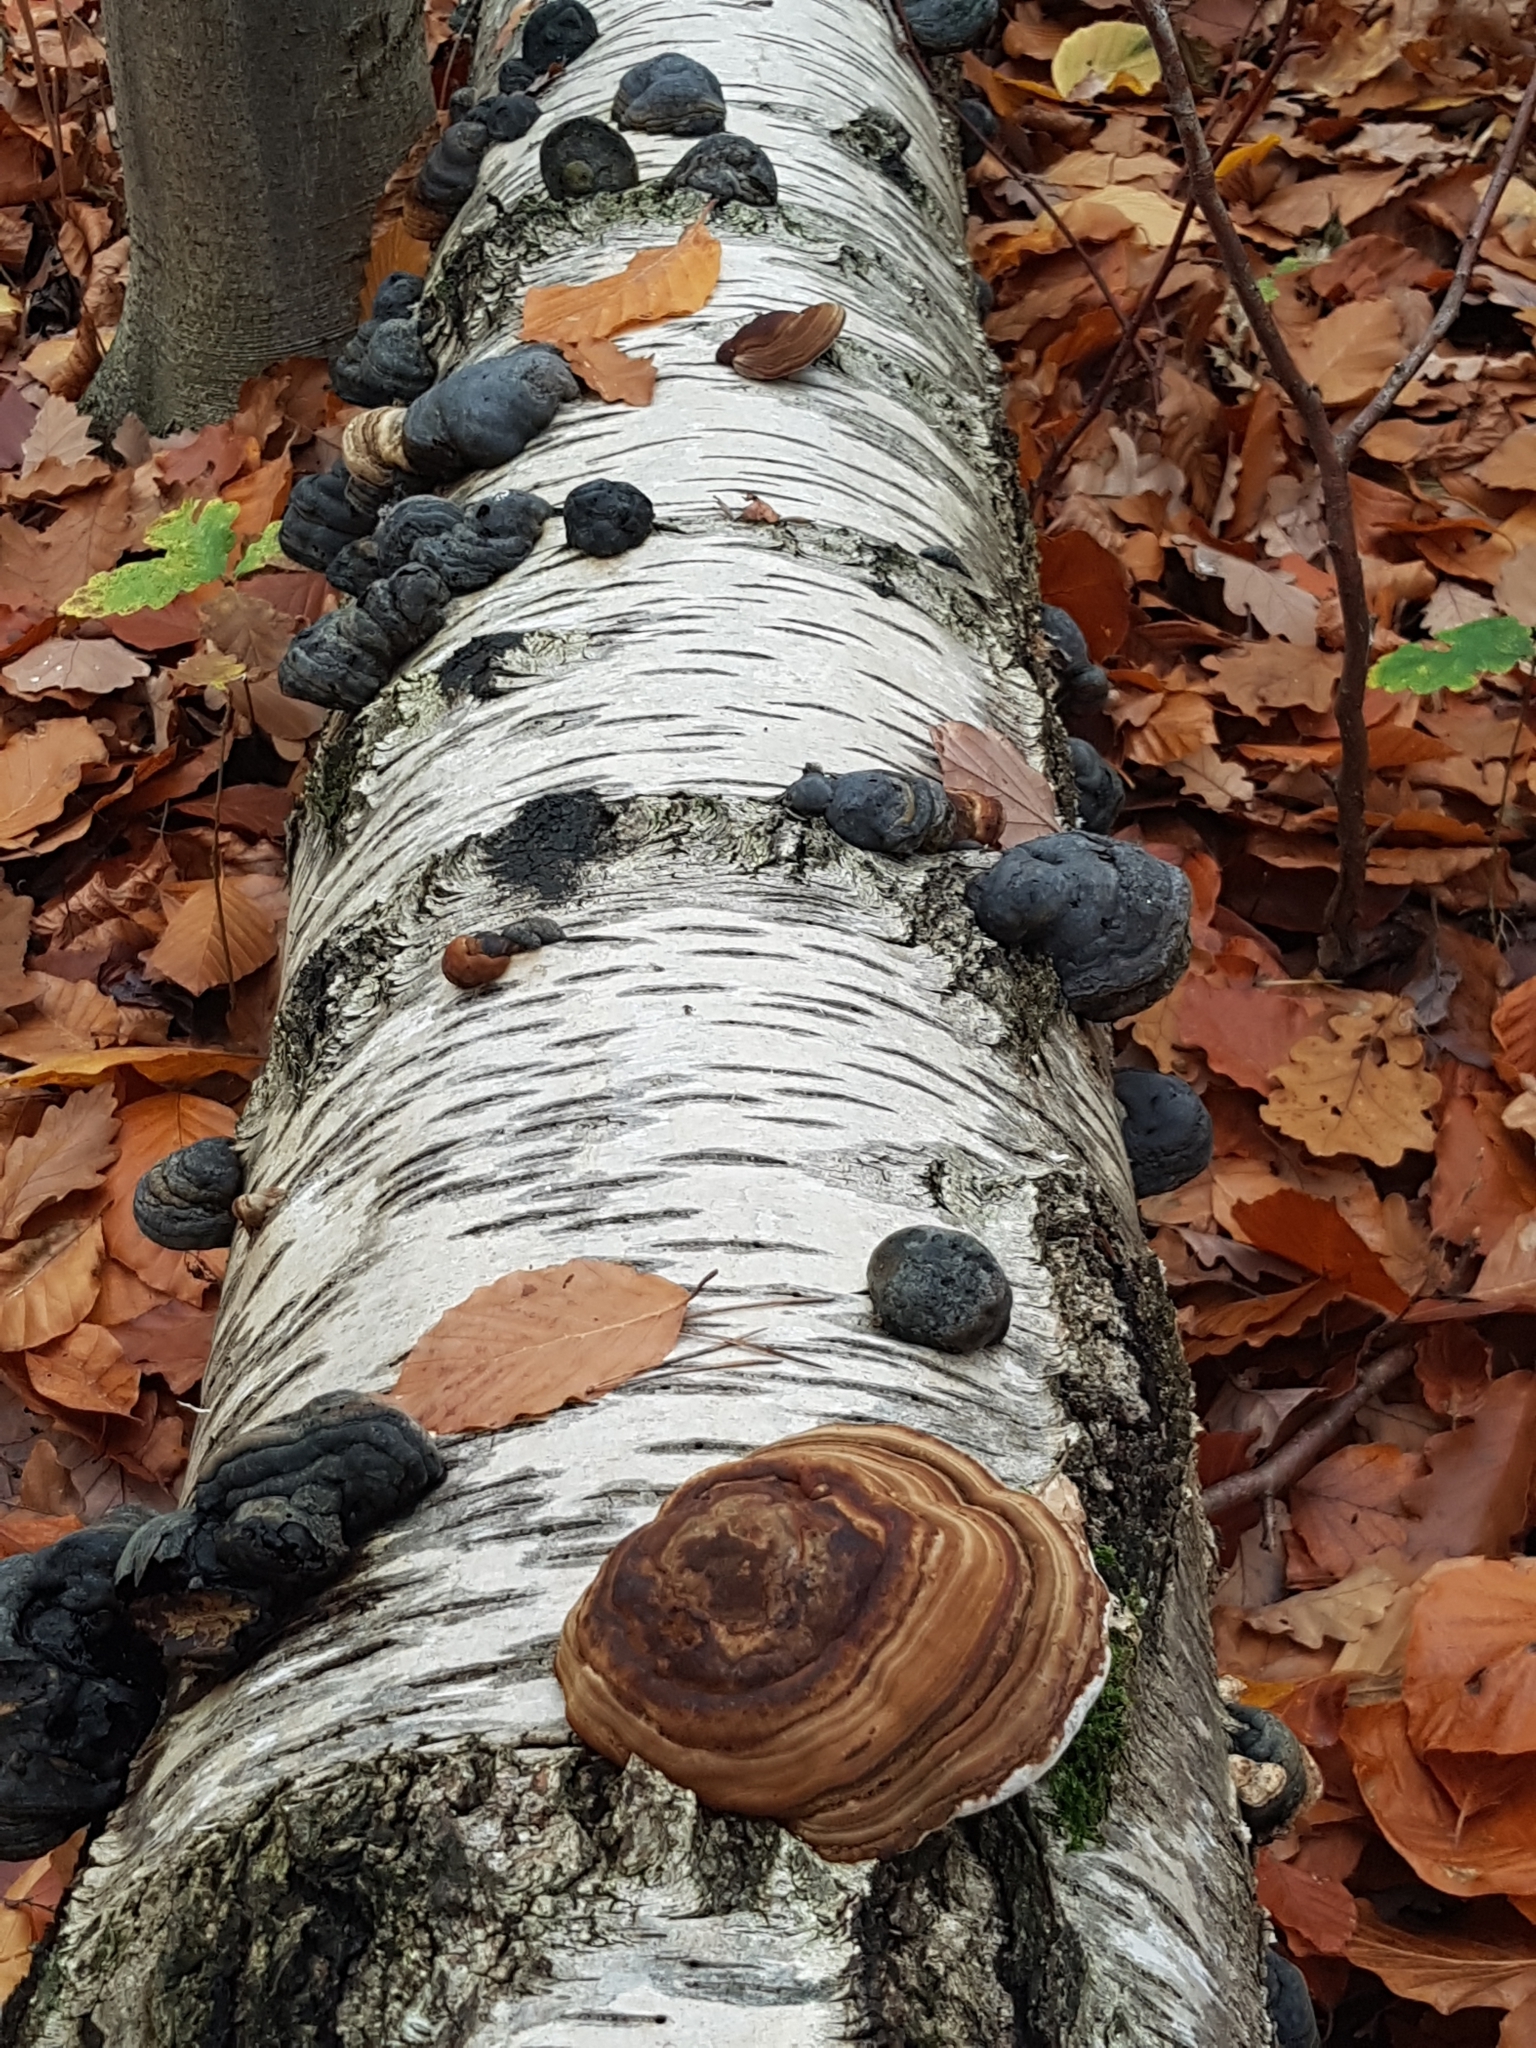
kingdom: Fungi
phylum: Basidiomycota
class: Agaricomycetes
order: Polyporales
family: Polyporaceae
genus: Fomes
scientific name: Fomes fomentarius
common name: Hoof fungus
